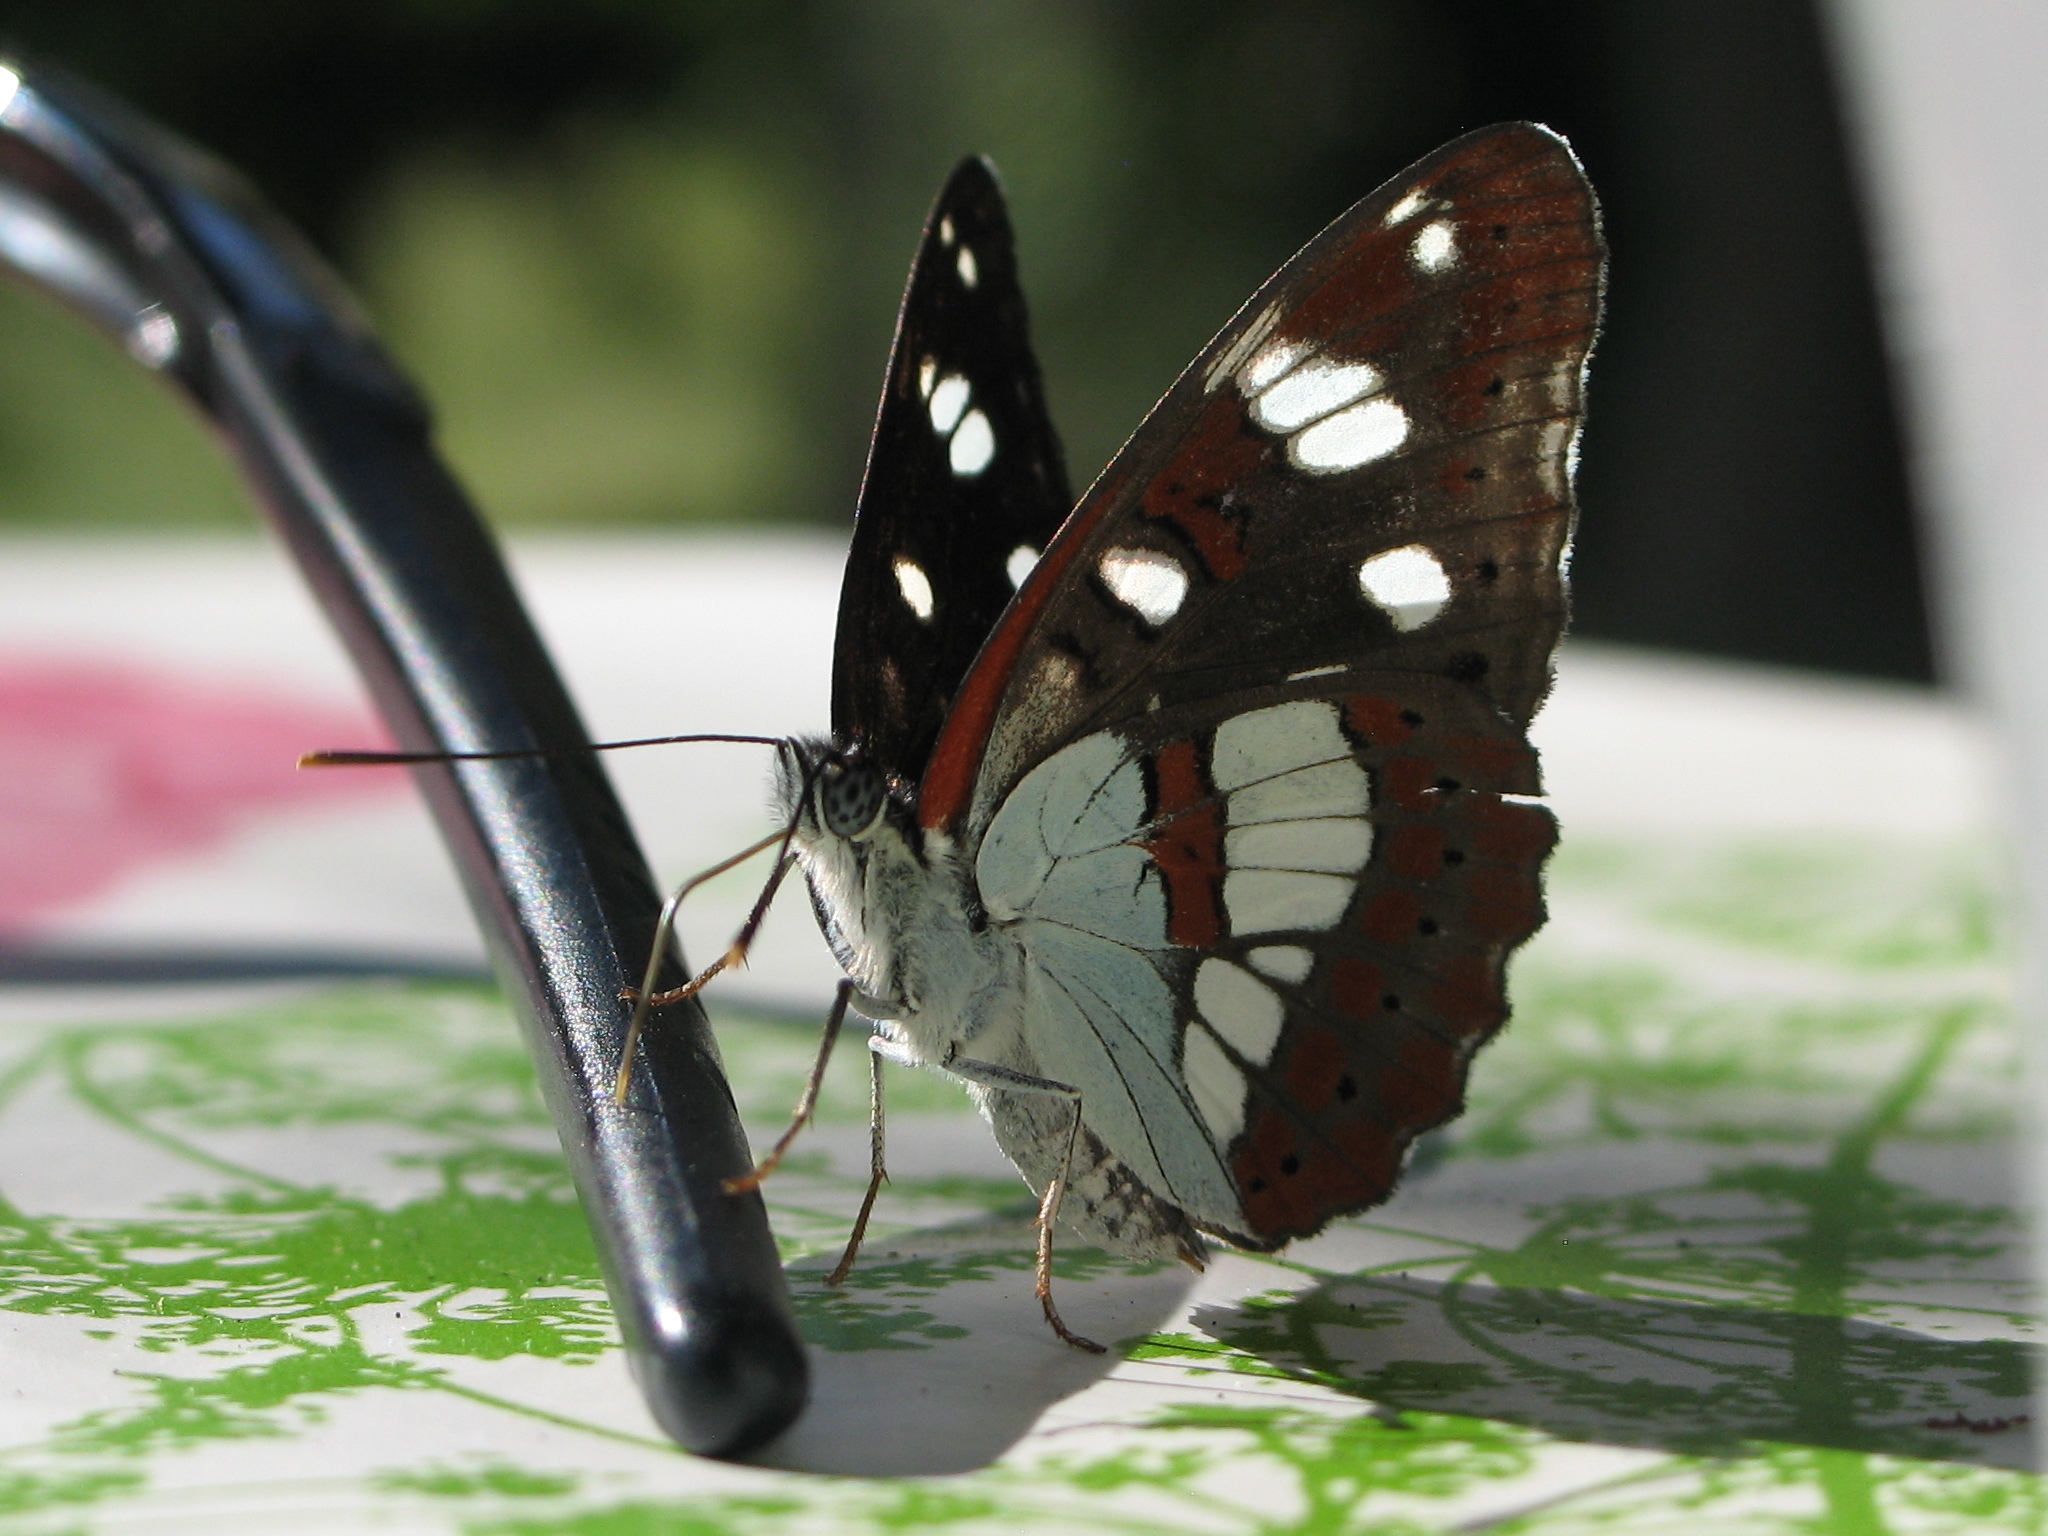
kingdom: Animalia
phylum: Arthropoda
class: Insecta
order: Lepidoptera
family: Nymphalidae
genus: Limenitis
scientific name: Limenitis reducta
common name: Southern white admiral
